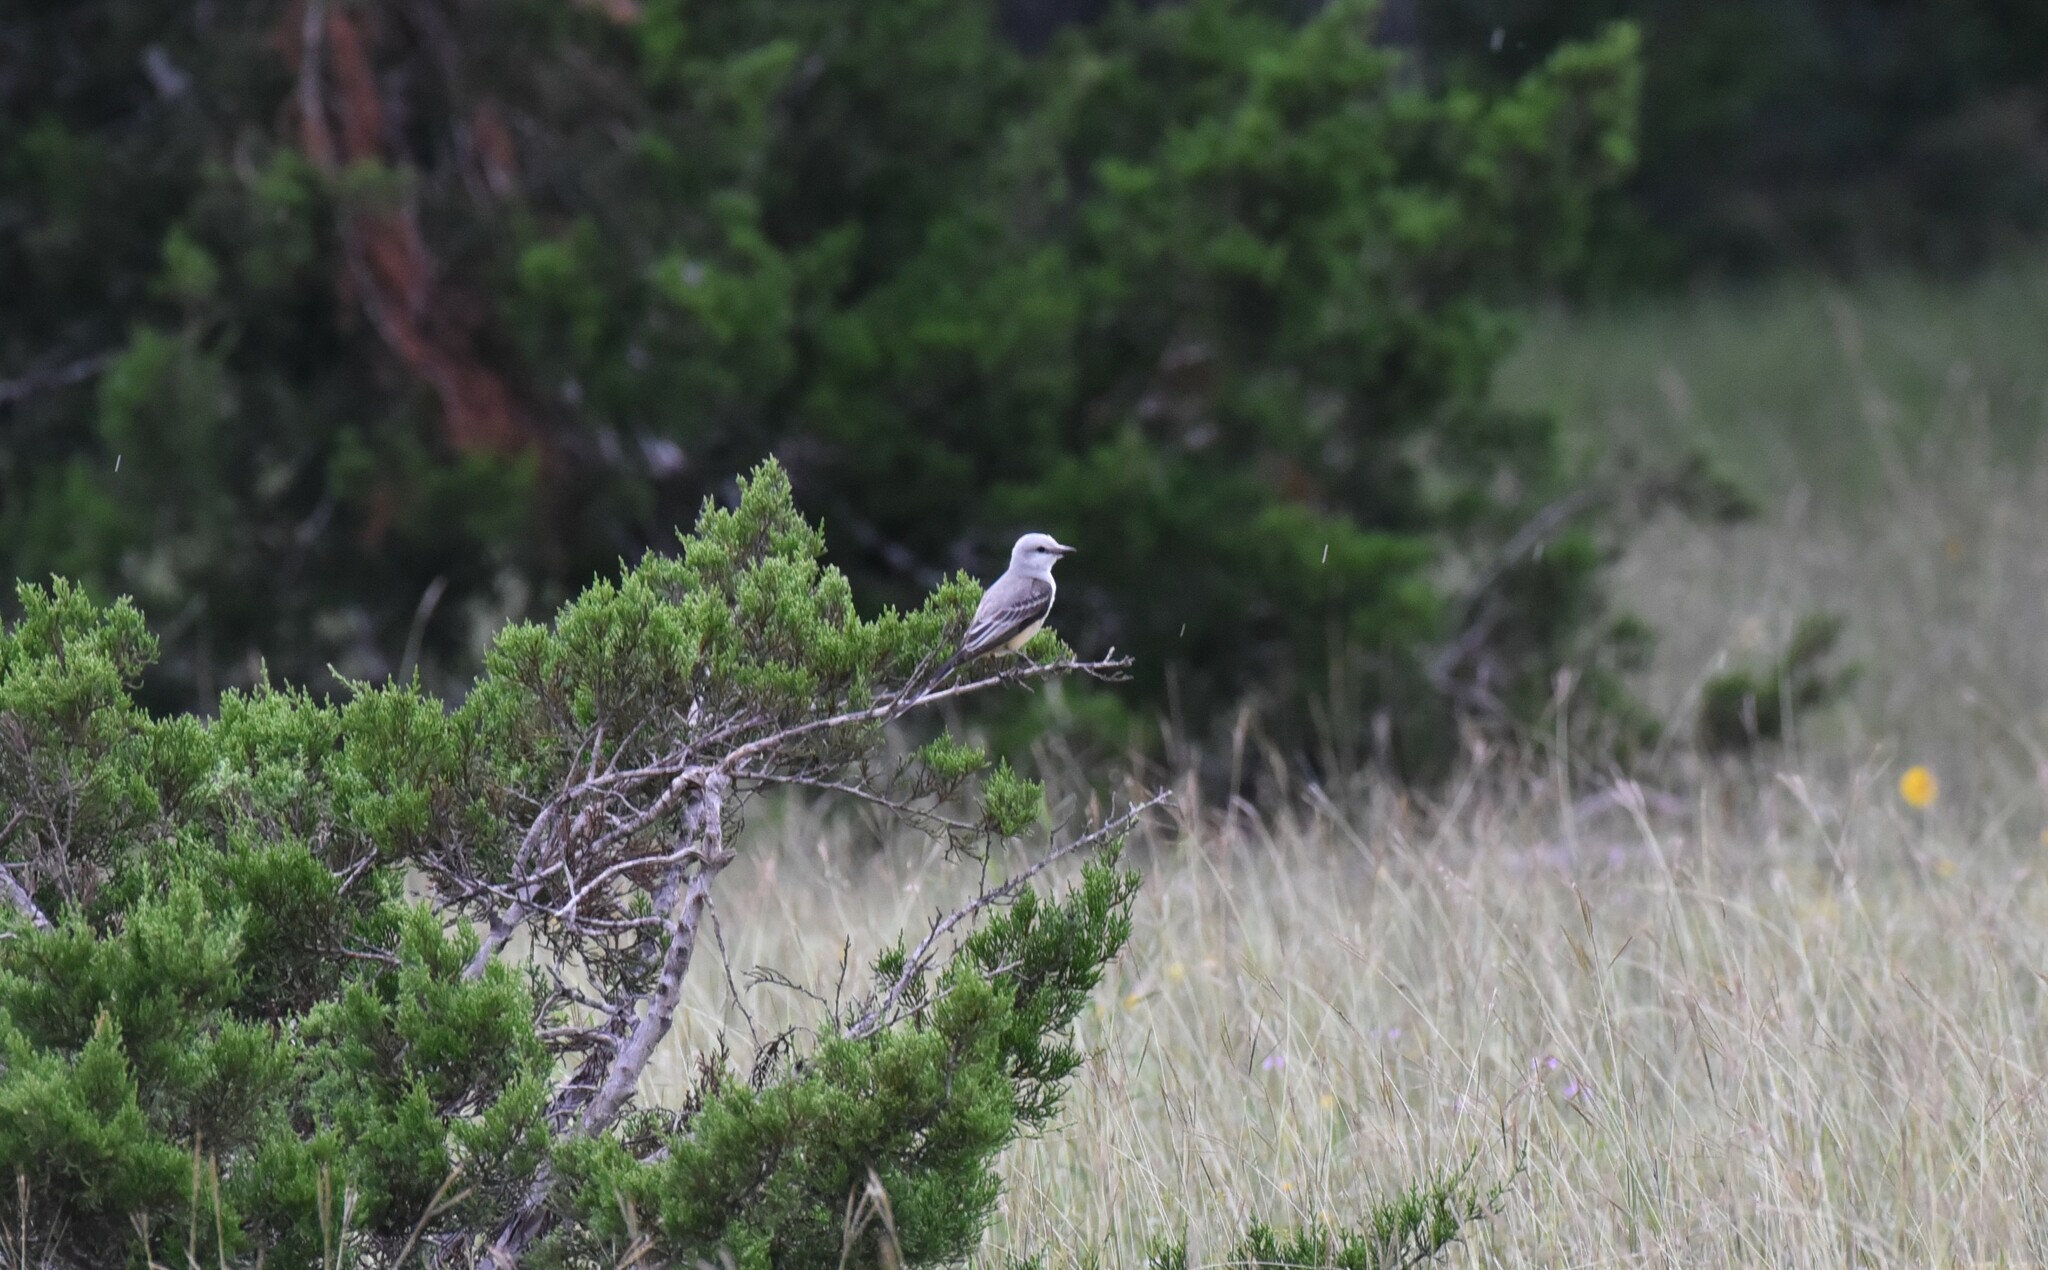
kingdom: Animalia
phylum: Chordata
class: Aves
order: Passeriformes
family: Tyrannidae
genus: Tyrannus
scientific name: Tyrannus forficatus
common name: Scissor-tailed flycatcher
